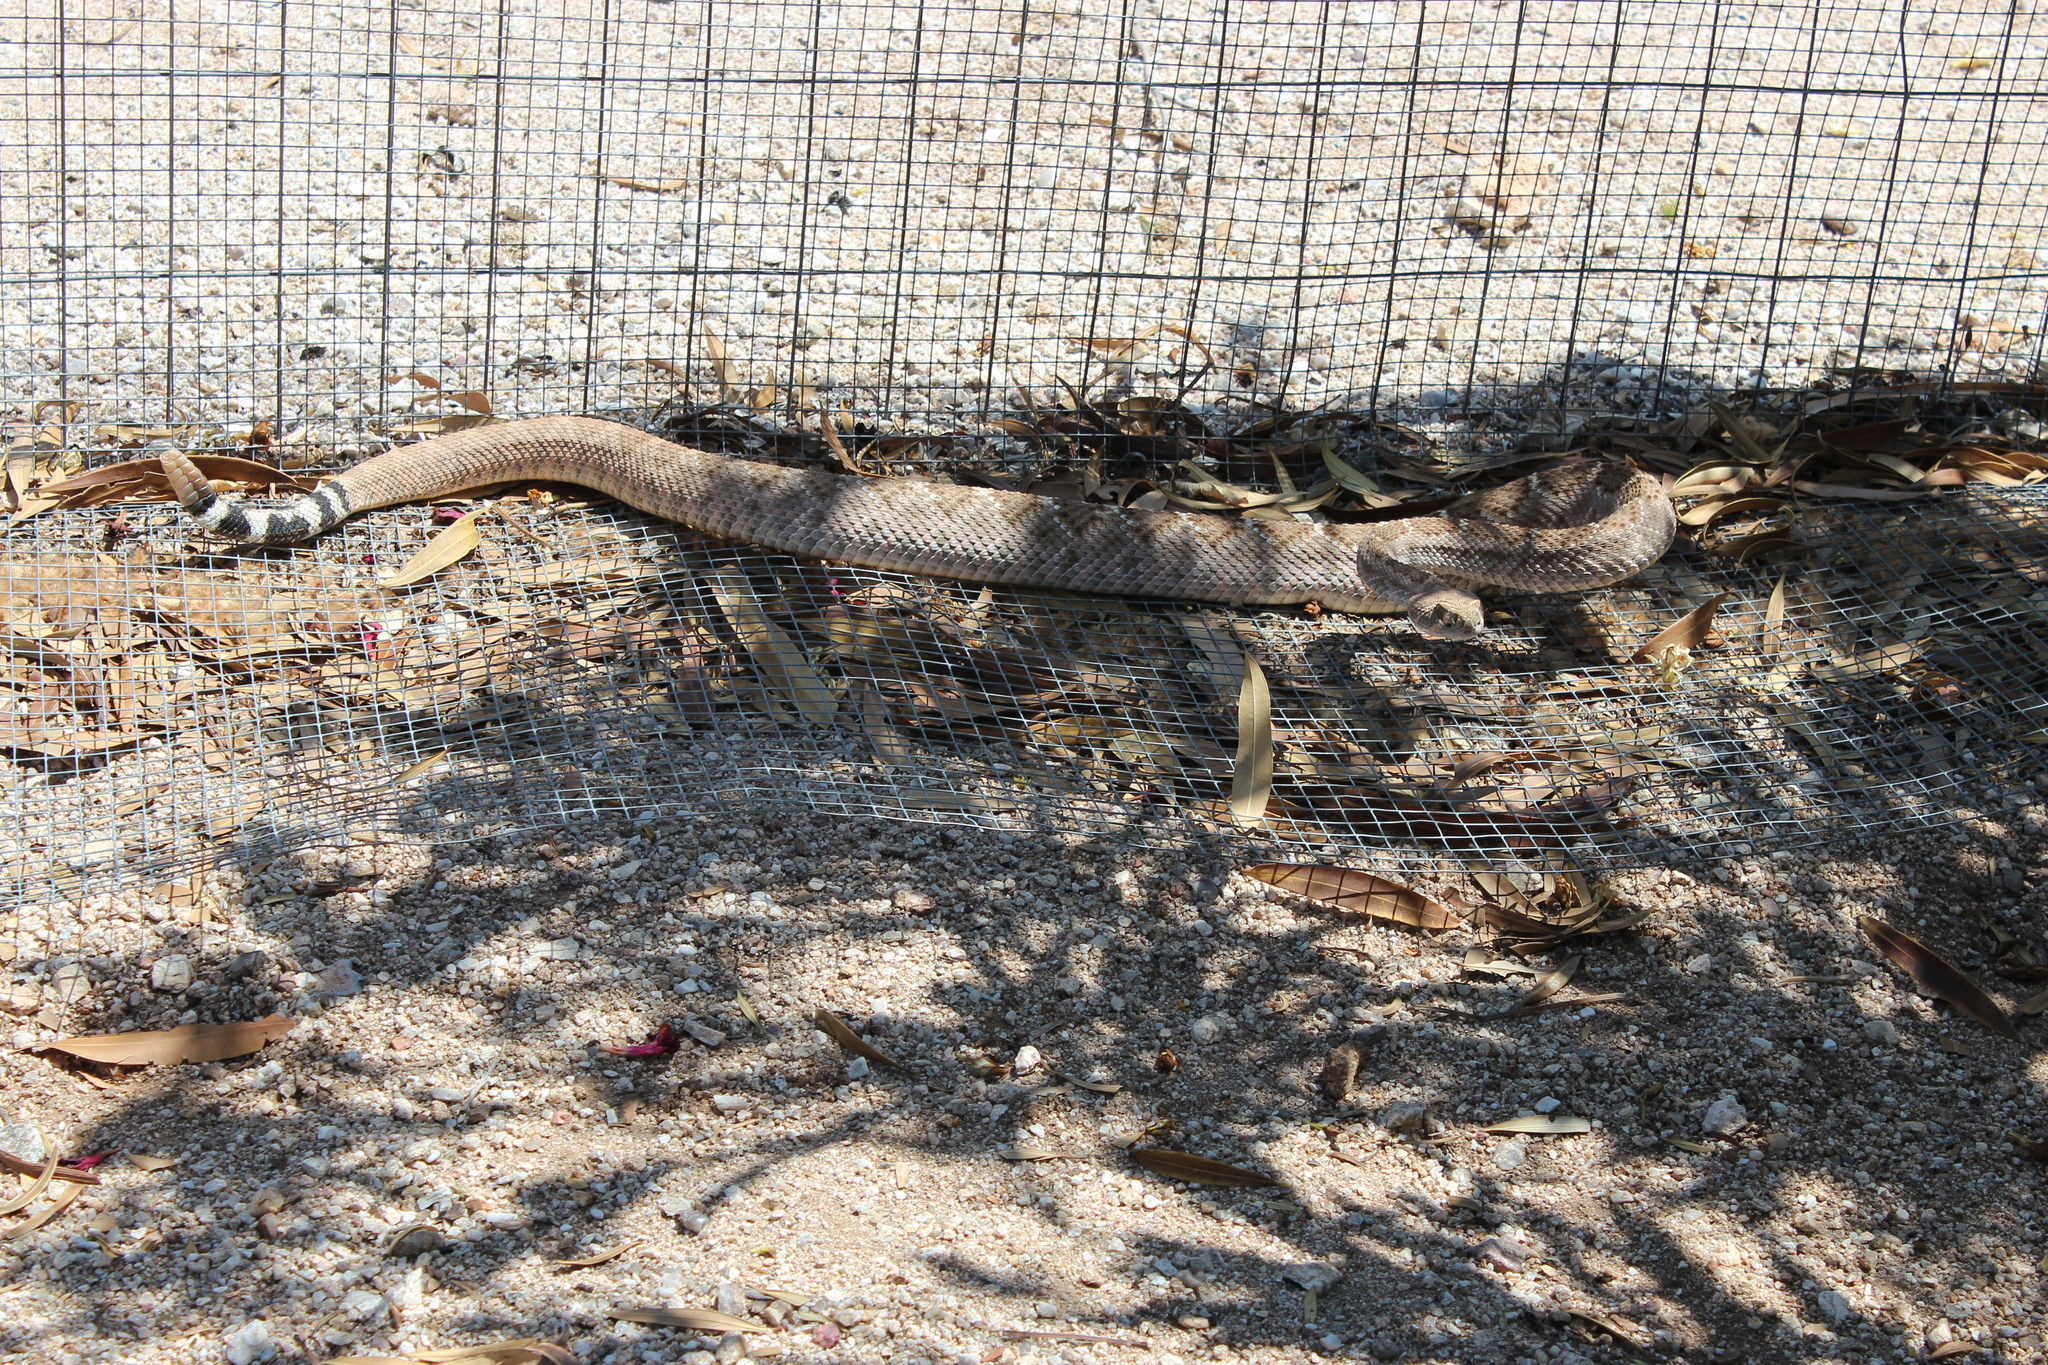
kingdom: Animalia
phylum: Chordata
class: Squamata
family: Viperidae
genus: Crotalus
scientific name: Crotalus atrox
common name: Western diamond-backed rattlesnake
